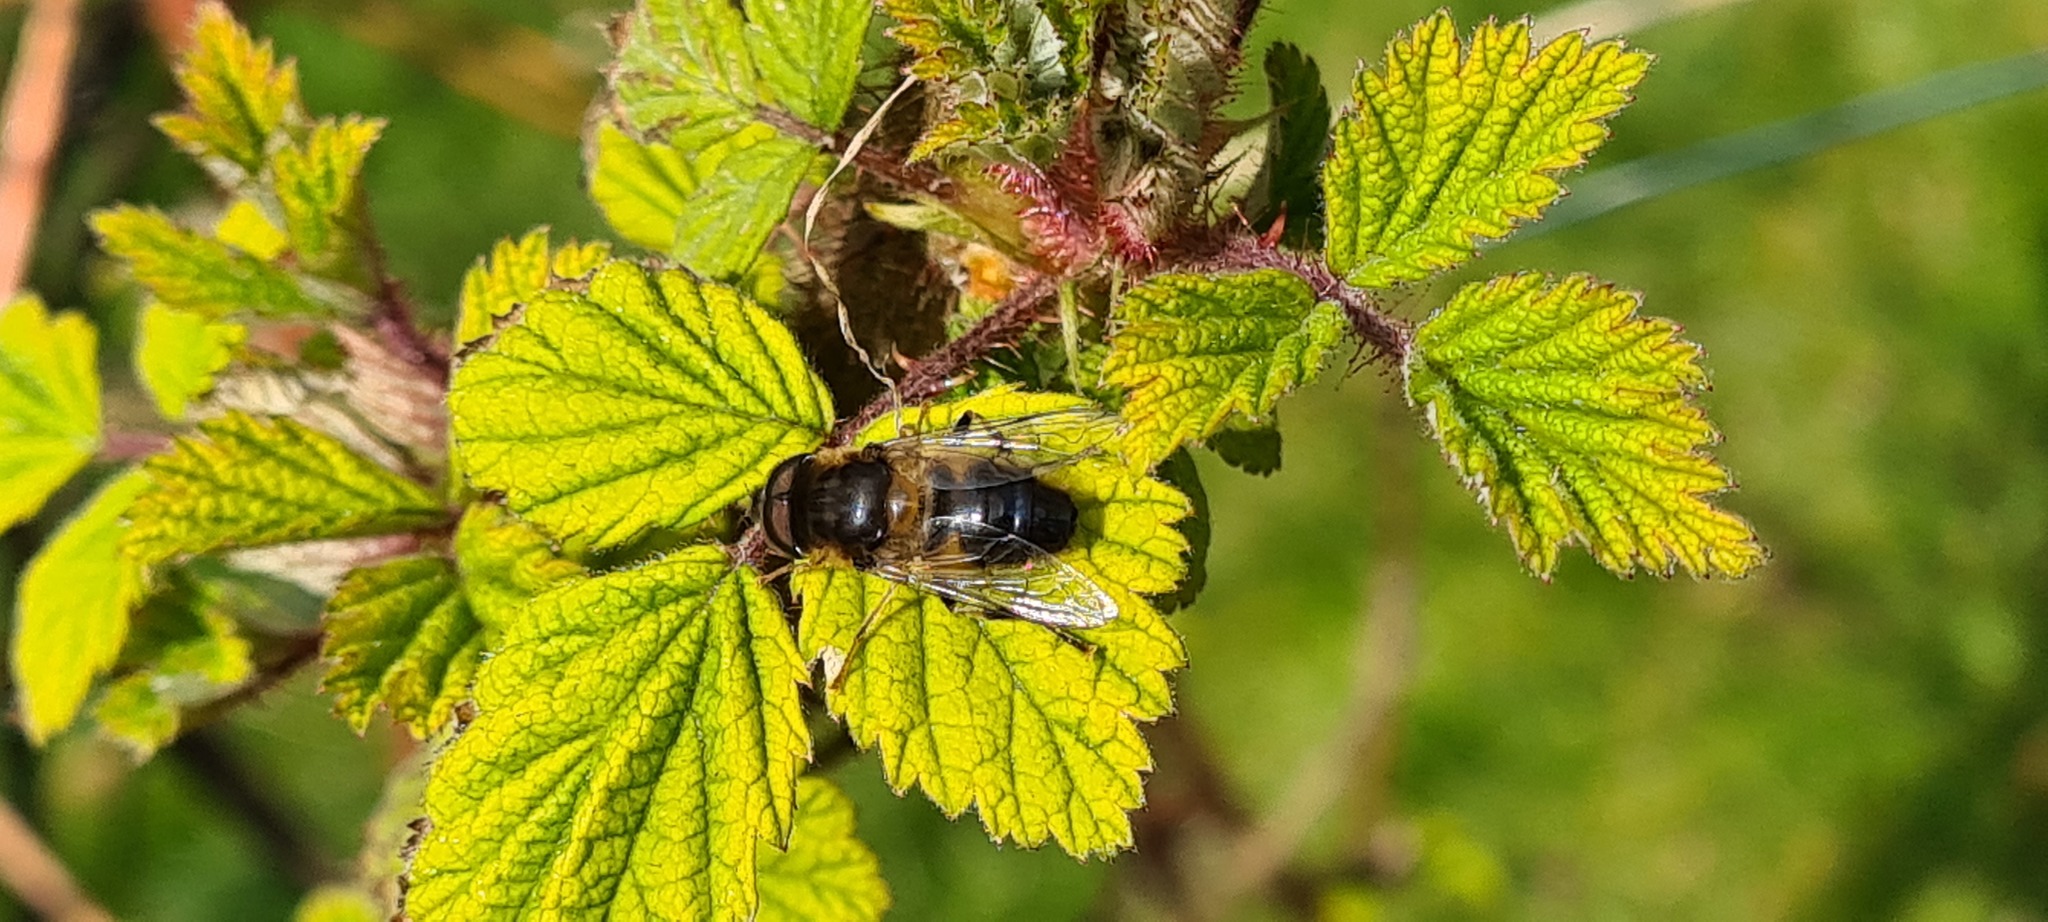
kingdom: Animalia
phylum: Arthropoda
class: Insecta
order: Diptera
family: Syrphidae
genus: Eristalis
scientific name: Eristalis pertinax
